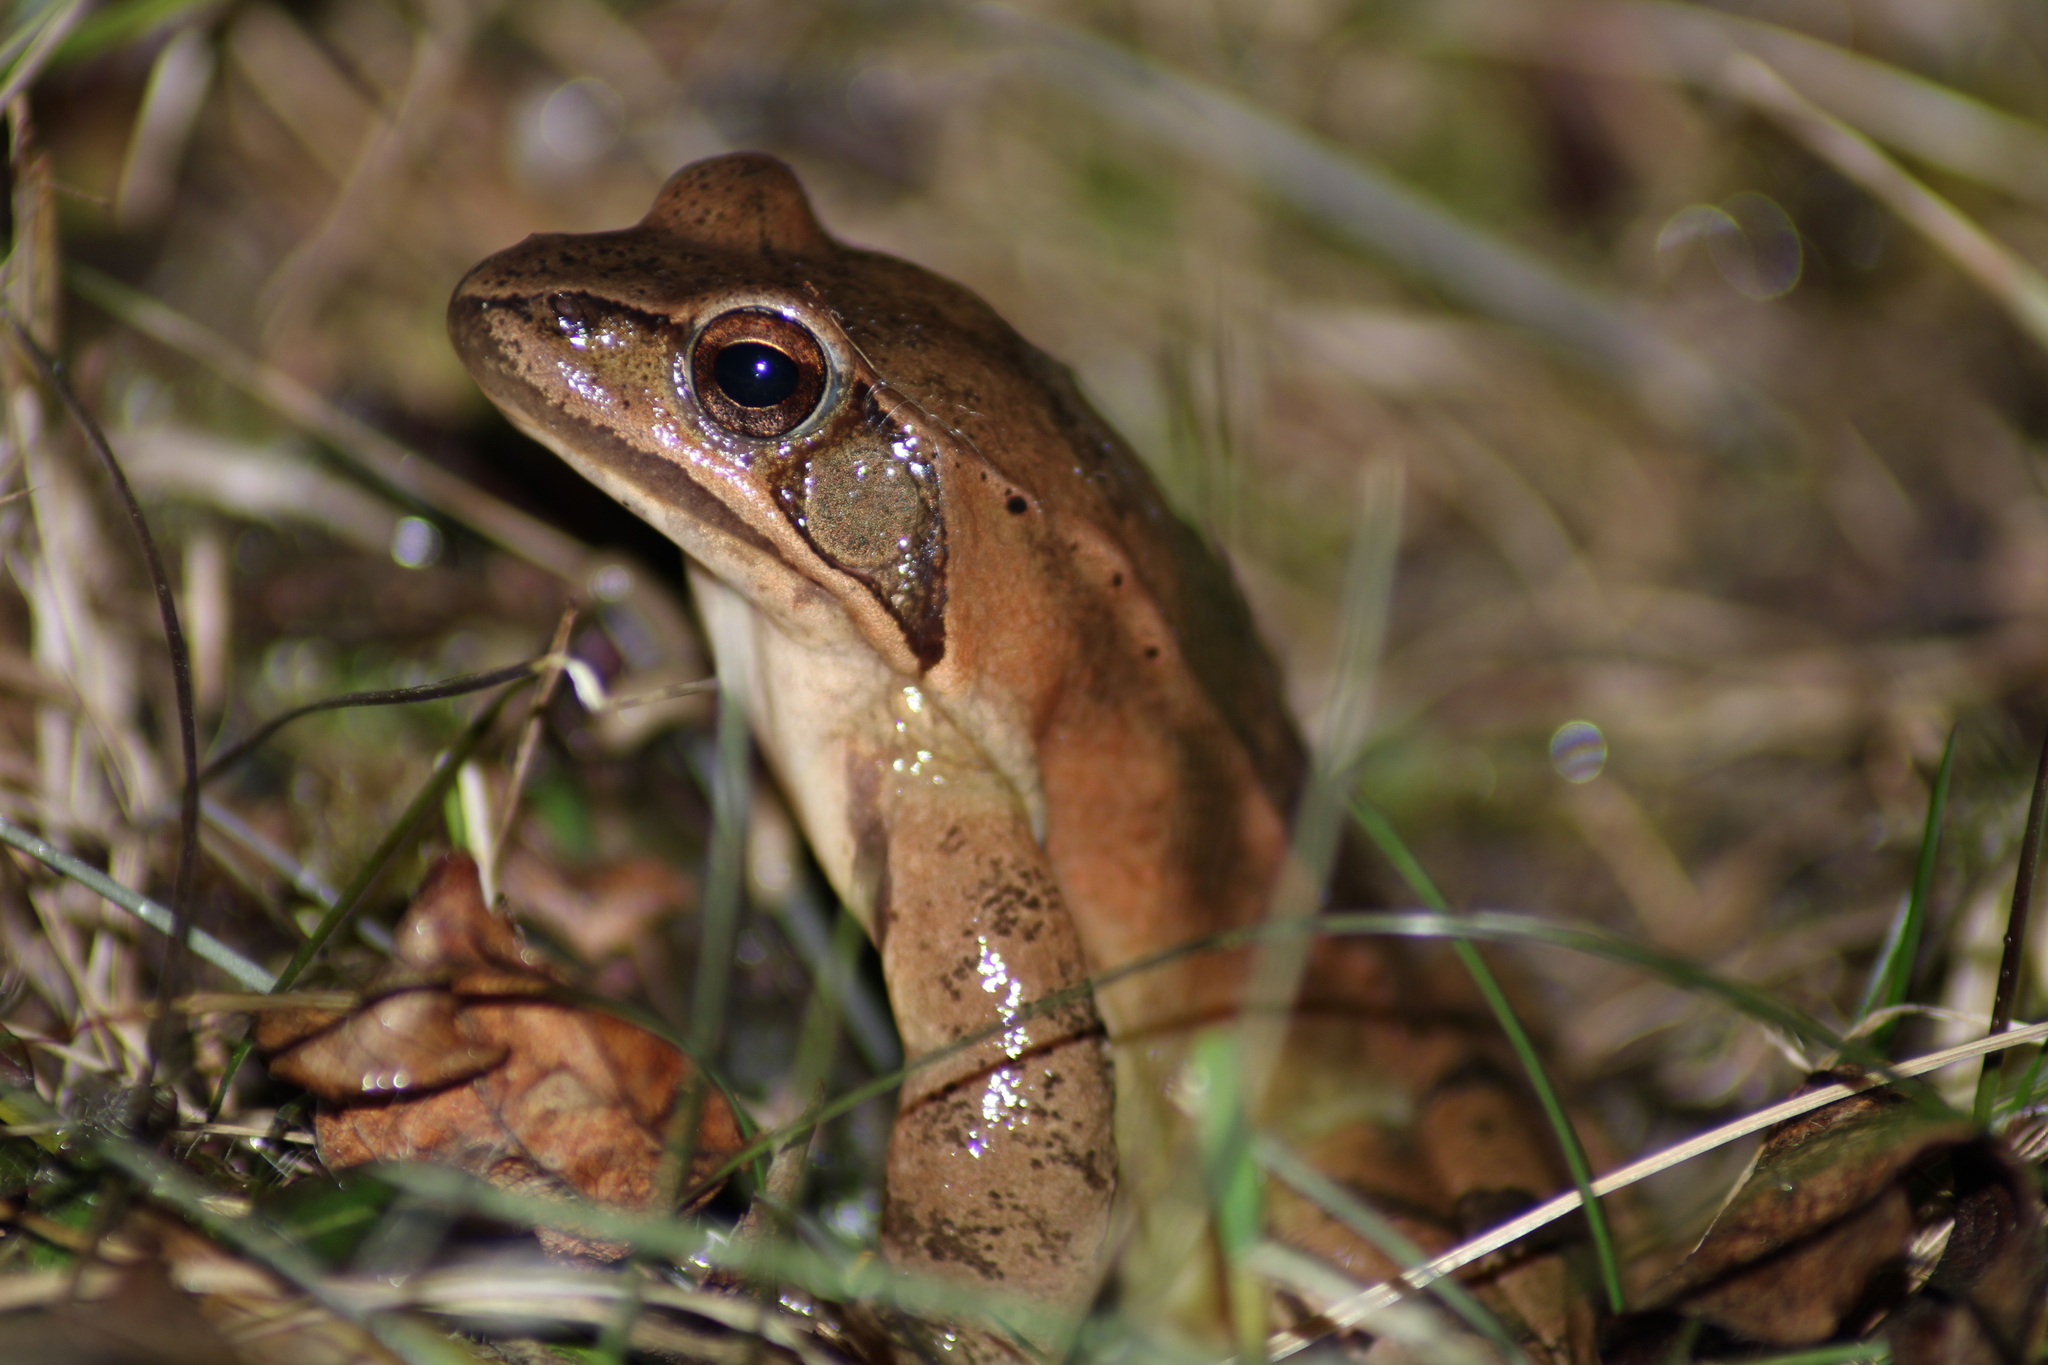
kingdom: Animalia
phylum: Chordata
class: Amphibia
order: Anura
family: Ranidae
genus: Rana
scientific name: Rana dalmatina
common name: Agile frog
